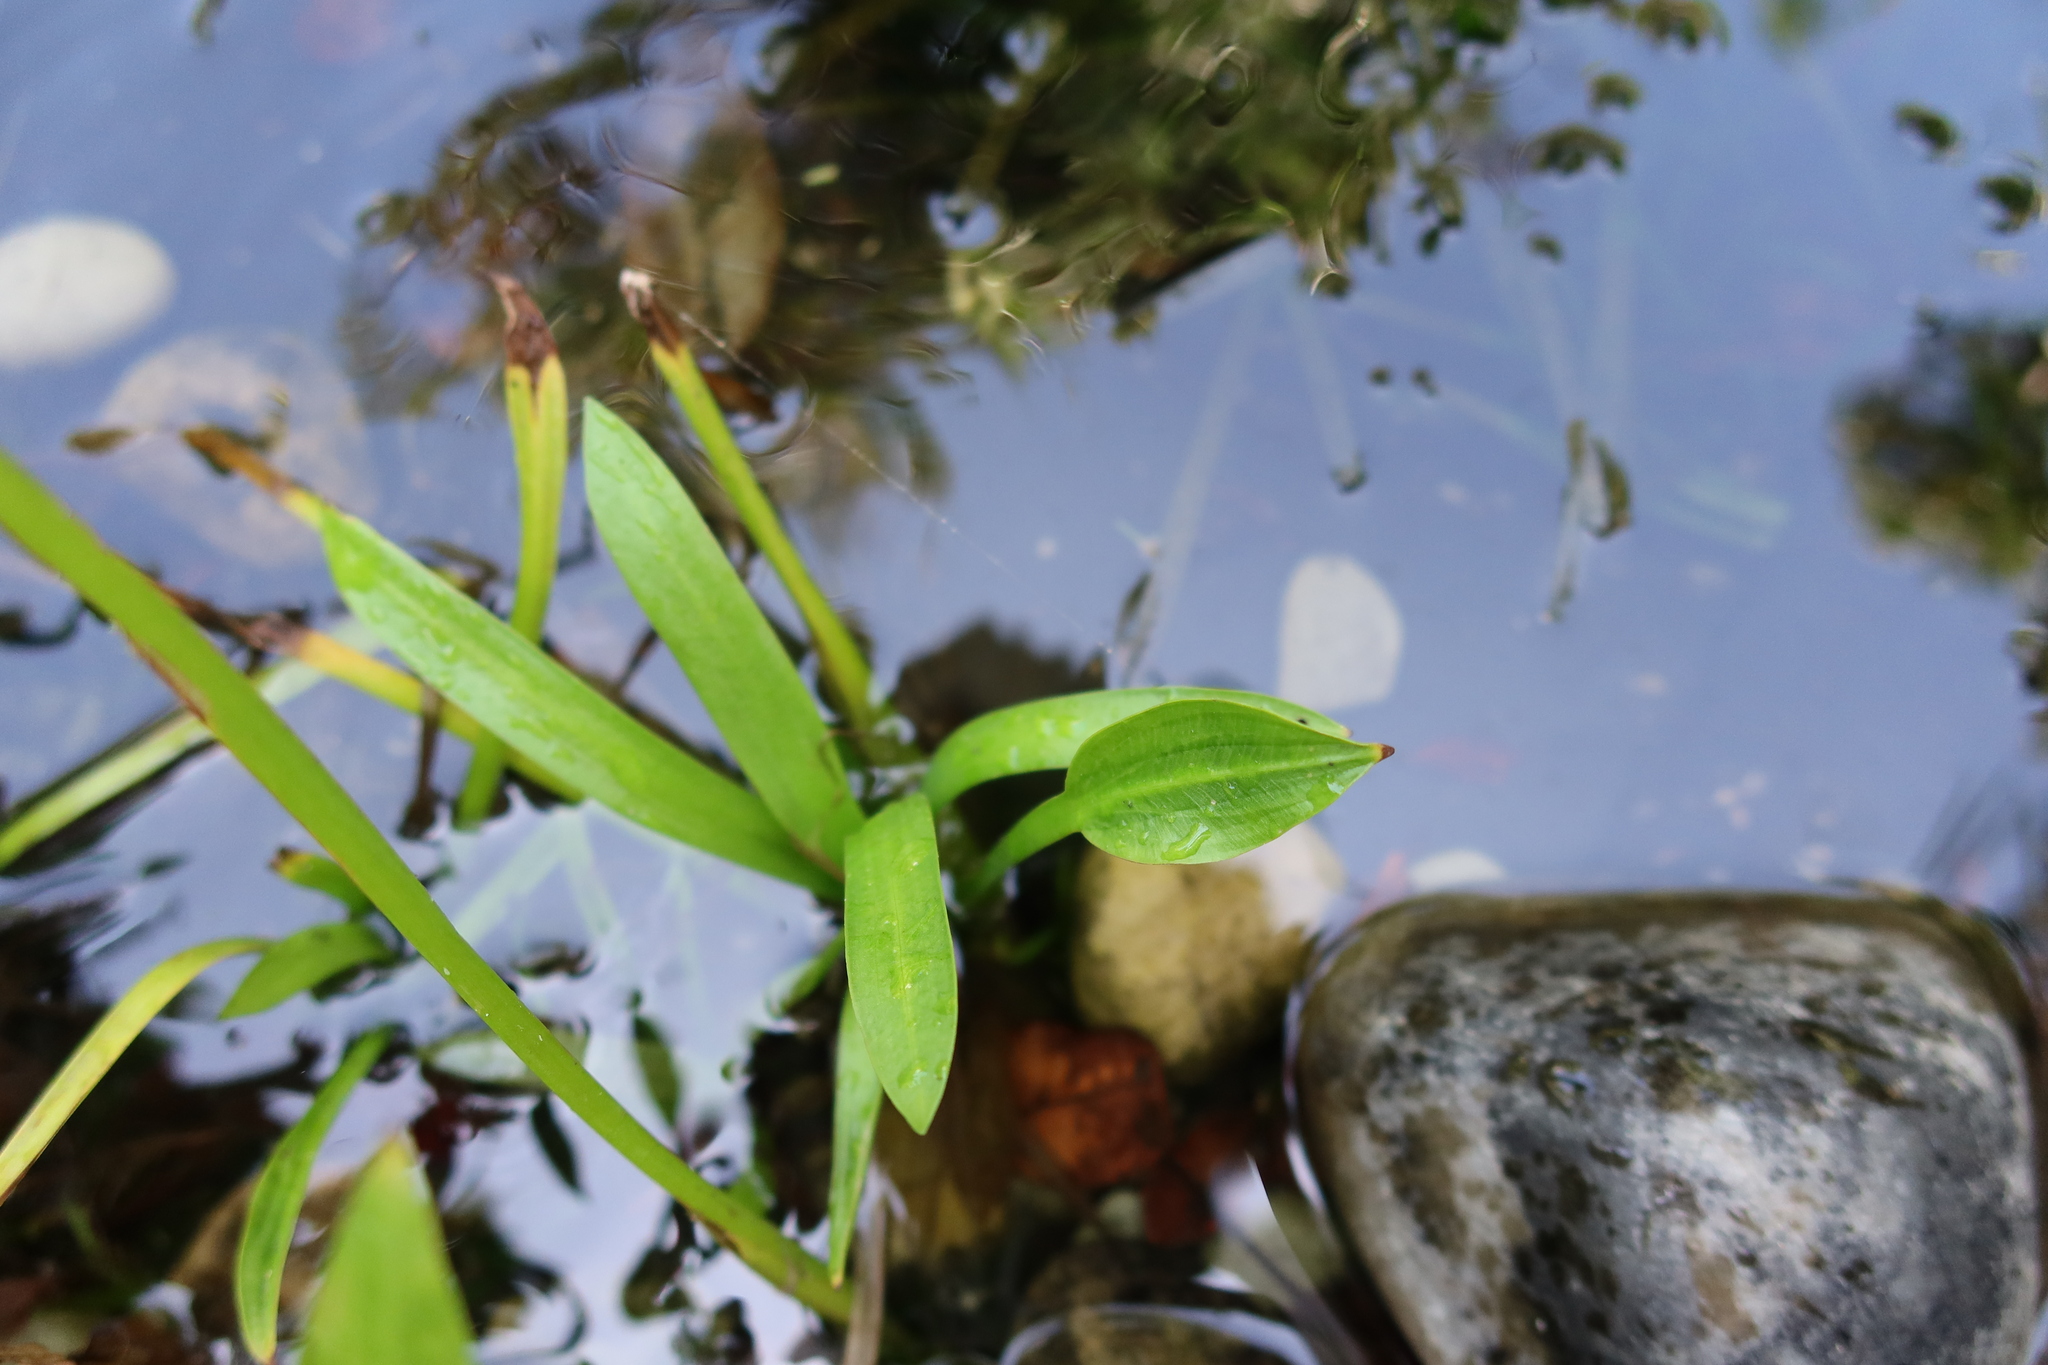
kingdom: Plantae
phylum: Tracheophyta
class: Liliopsida
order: Alismatales
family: Alismataceae
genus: Sagittaria
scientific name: Sagittaria platyphylla
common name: Broad-leaf arrowhead
